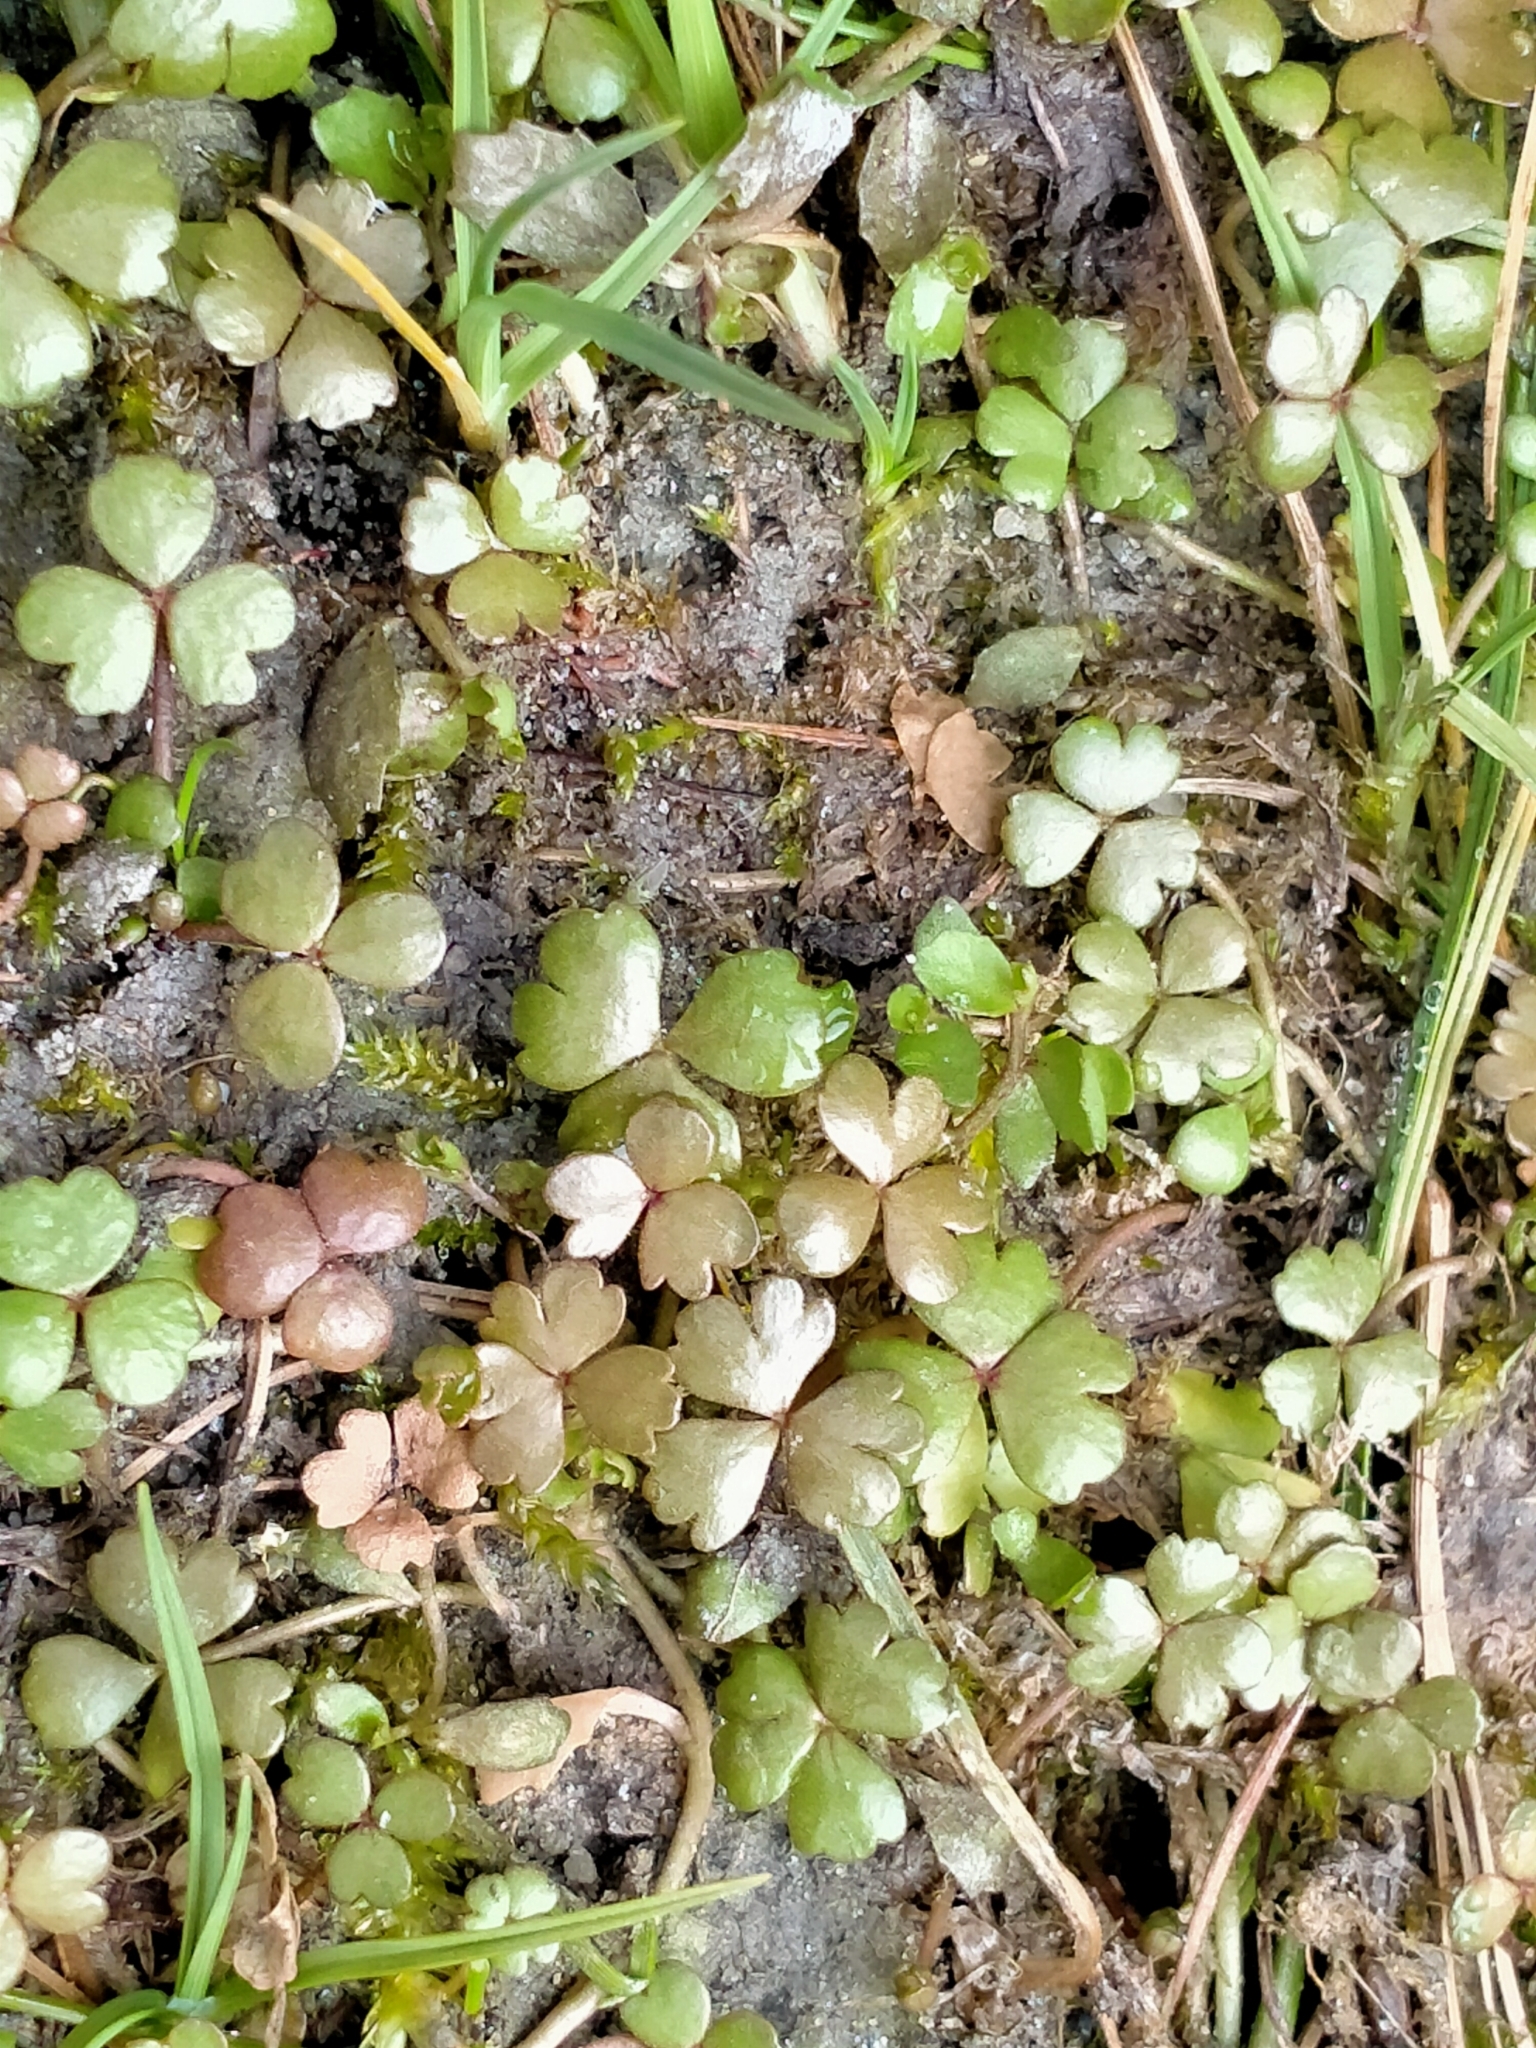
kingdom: Plantae
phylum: Tracheophyta
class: Magnoliopsida
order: Apiales
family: Araliaceae
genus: Hydrocotyle
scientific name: Hydrocotyle sulcata
